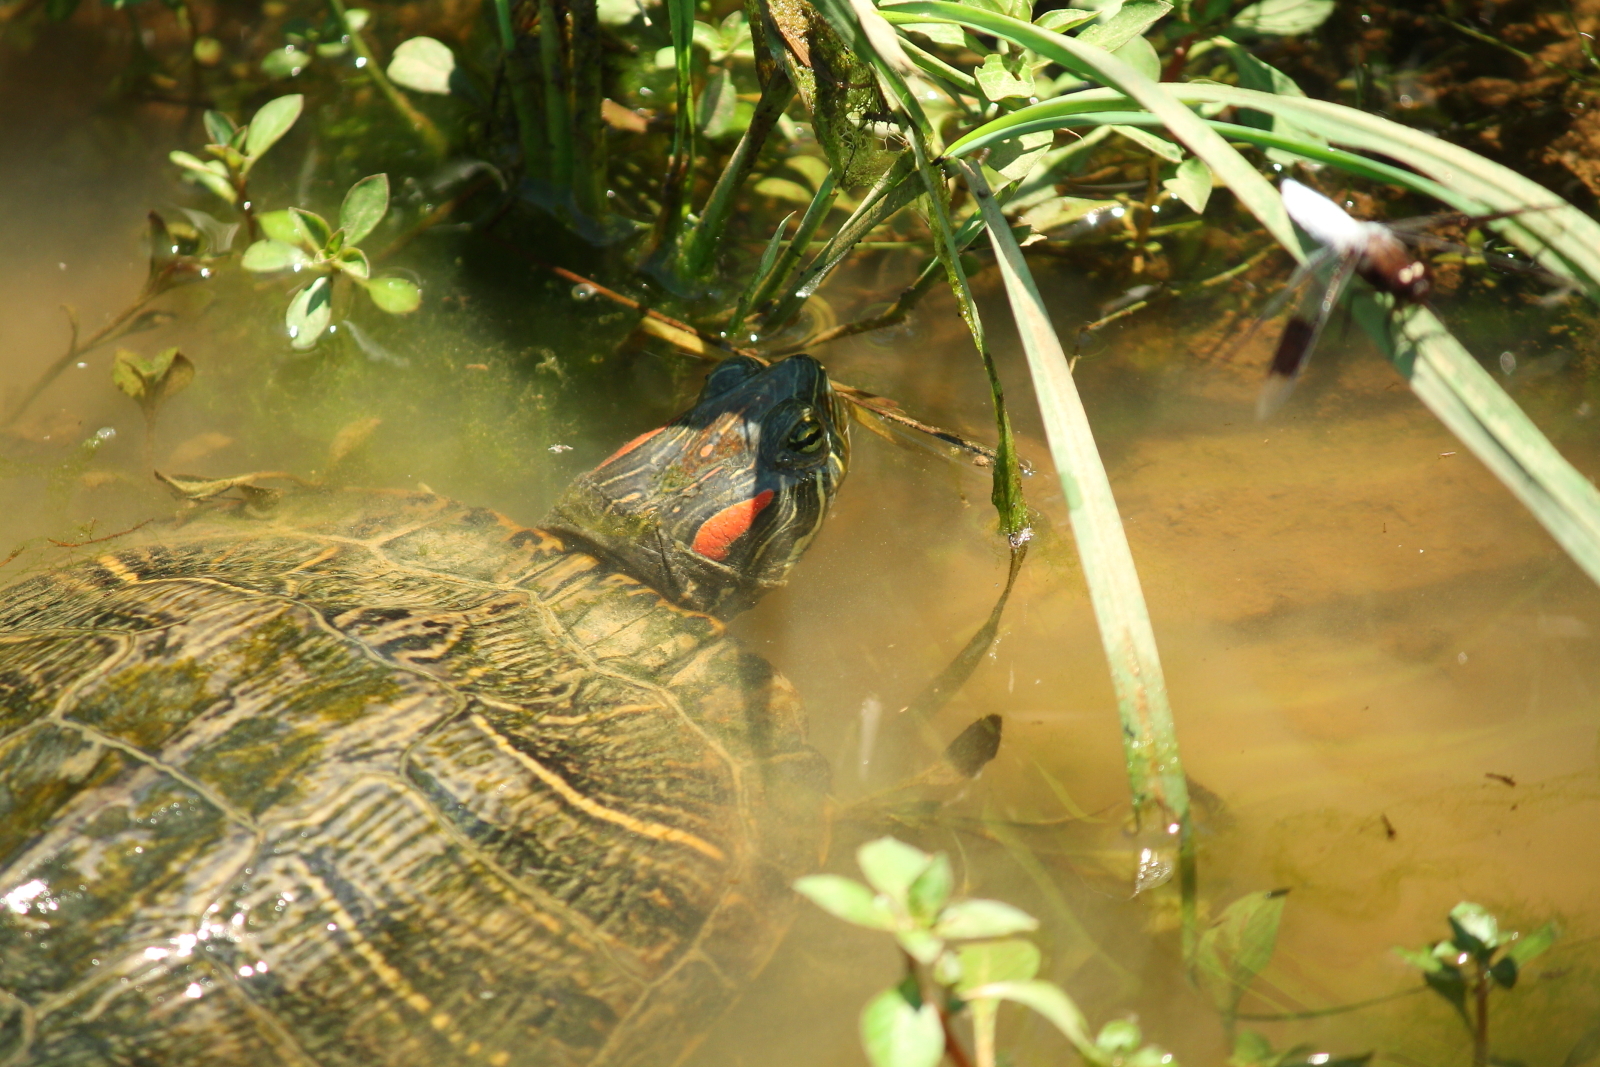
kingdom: Animalia
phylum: Chordata
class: Testudines
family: Emydidae
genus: Trachemys
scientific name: Trachemys scripta
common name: Slider
